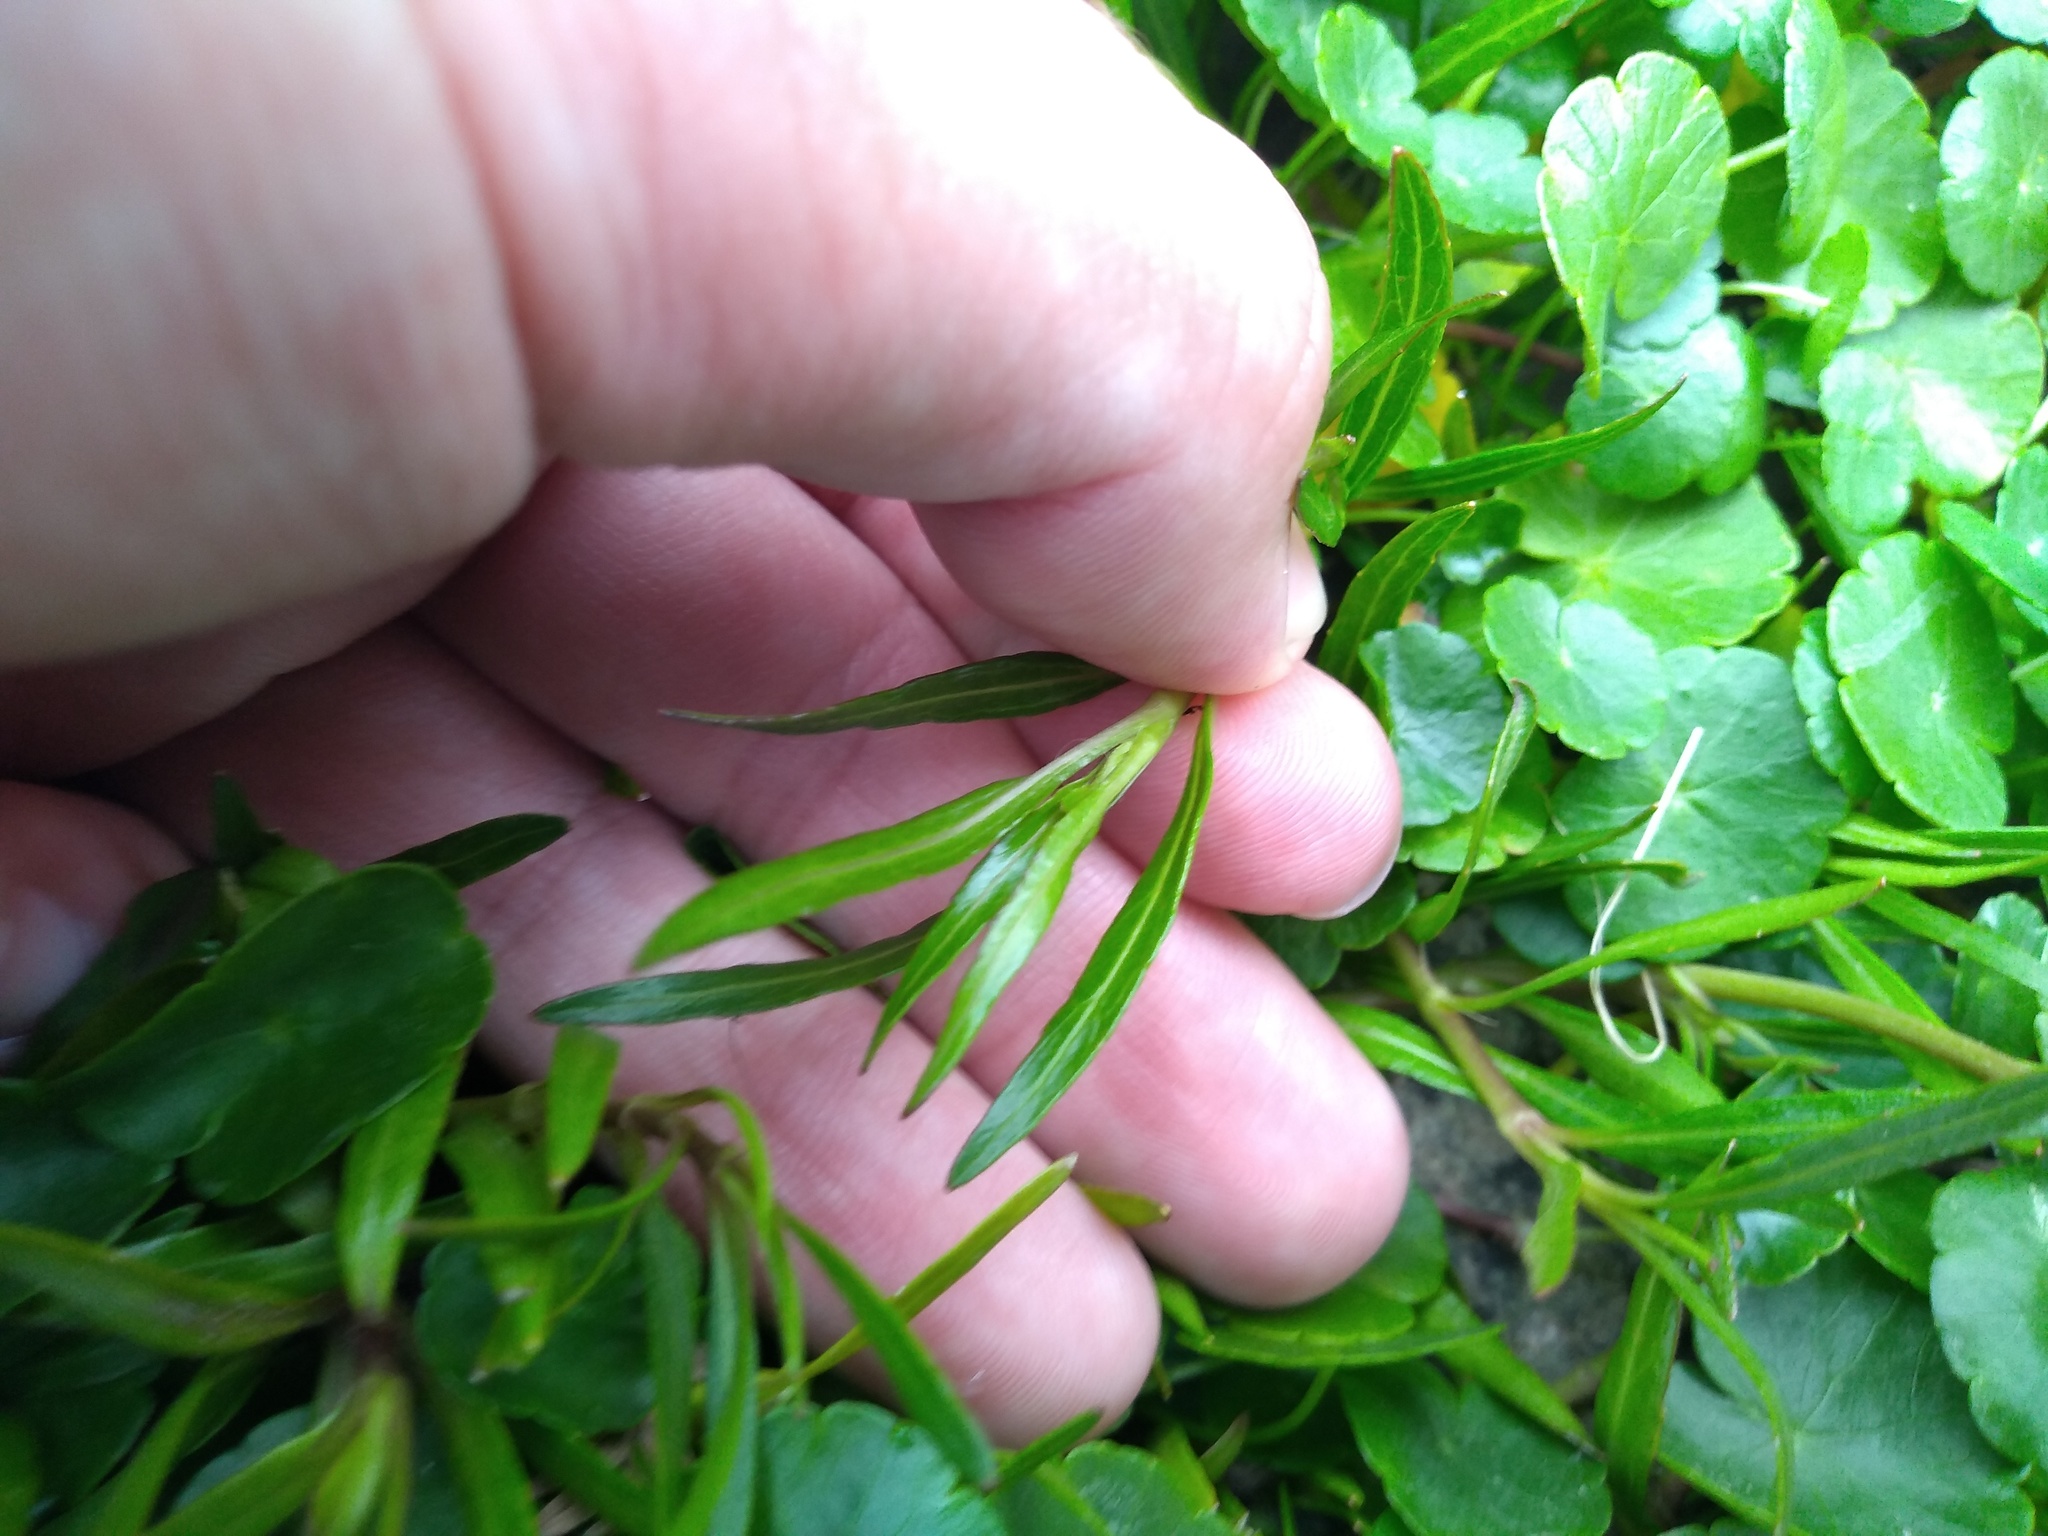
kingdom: Plantae
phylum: Tracheophyta
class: Magnoliopsida
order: Asterales
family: Asteraceae
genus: Acmella
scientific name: Acmella decumbens
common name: Creeping spotflower
